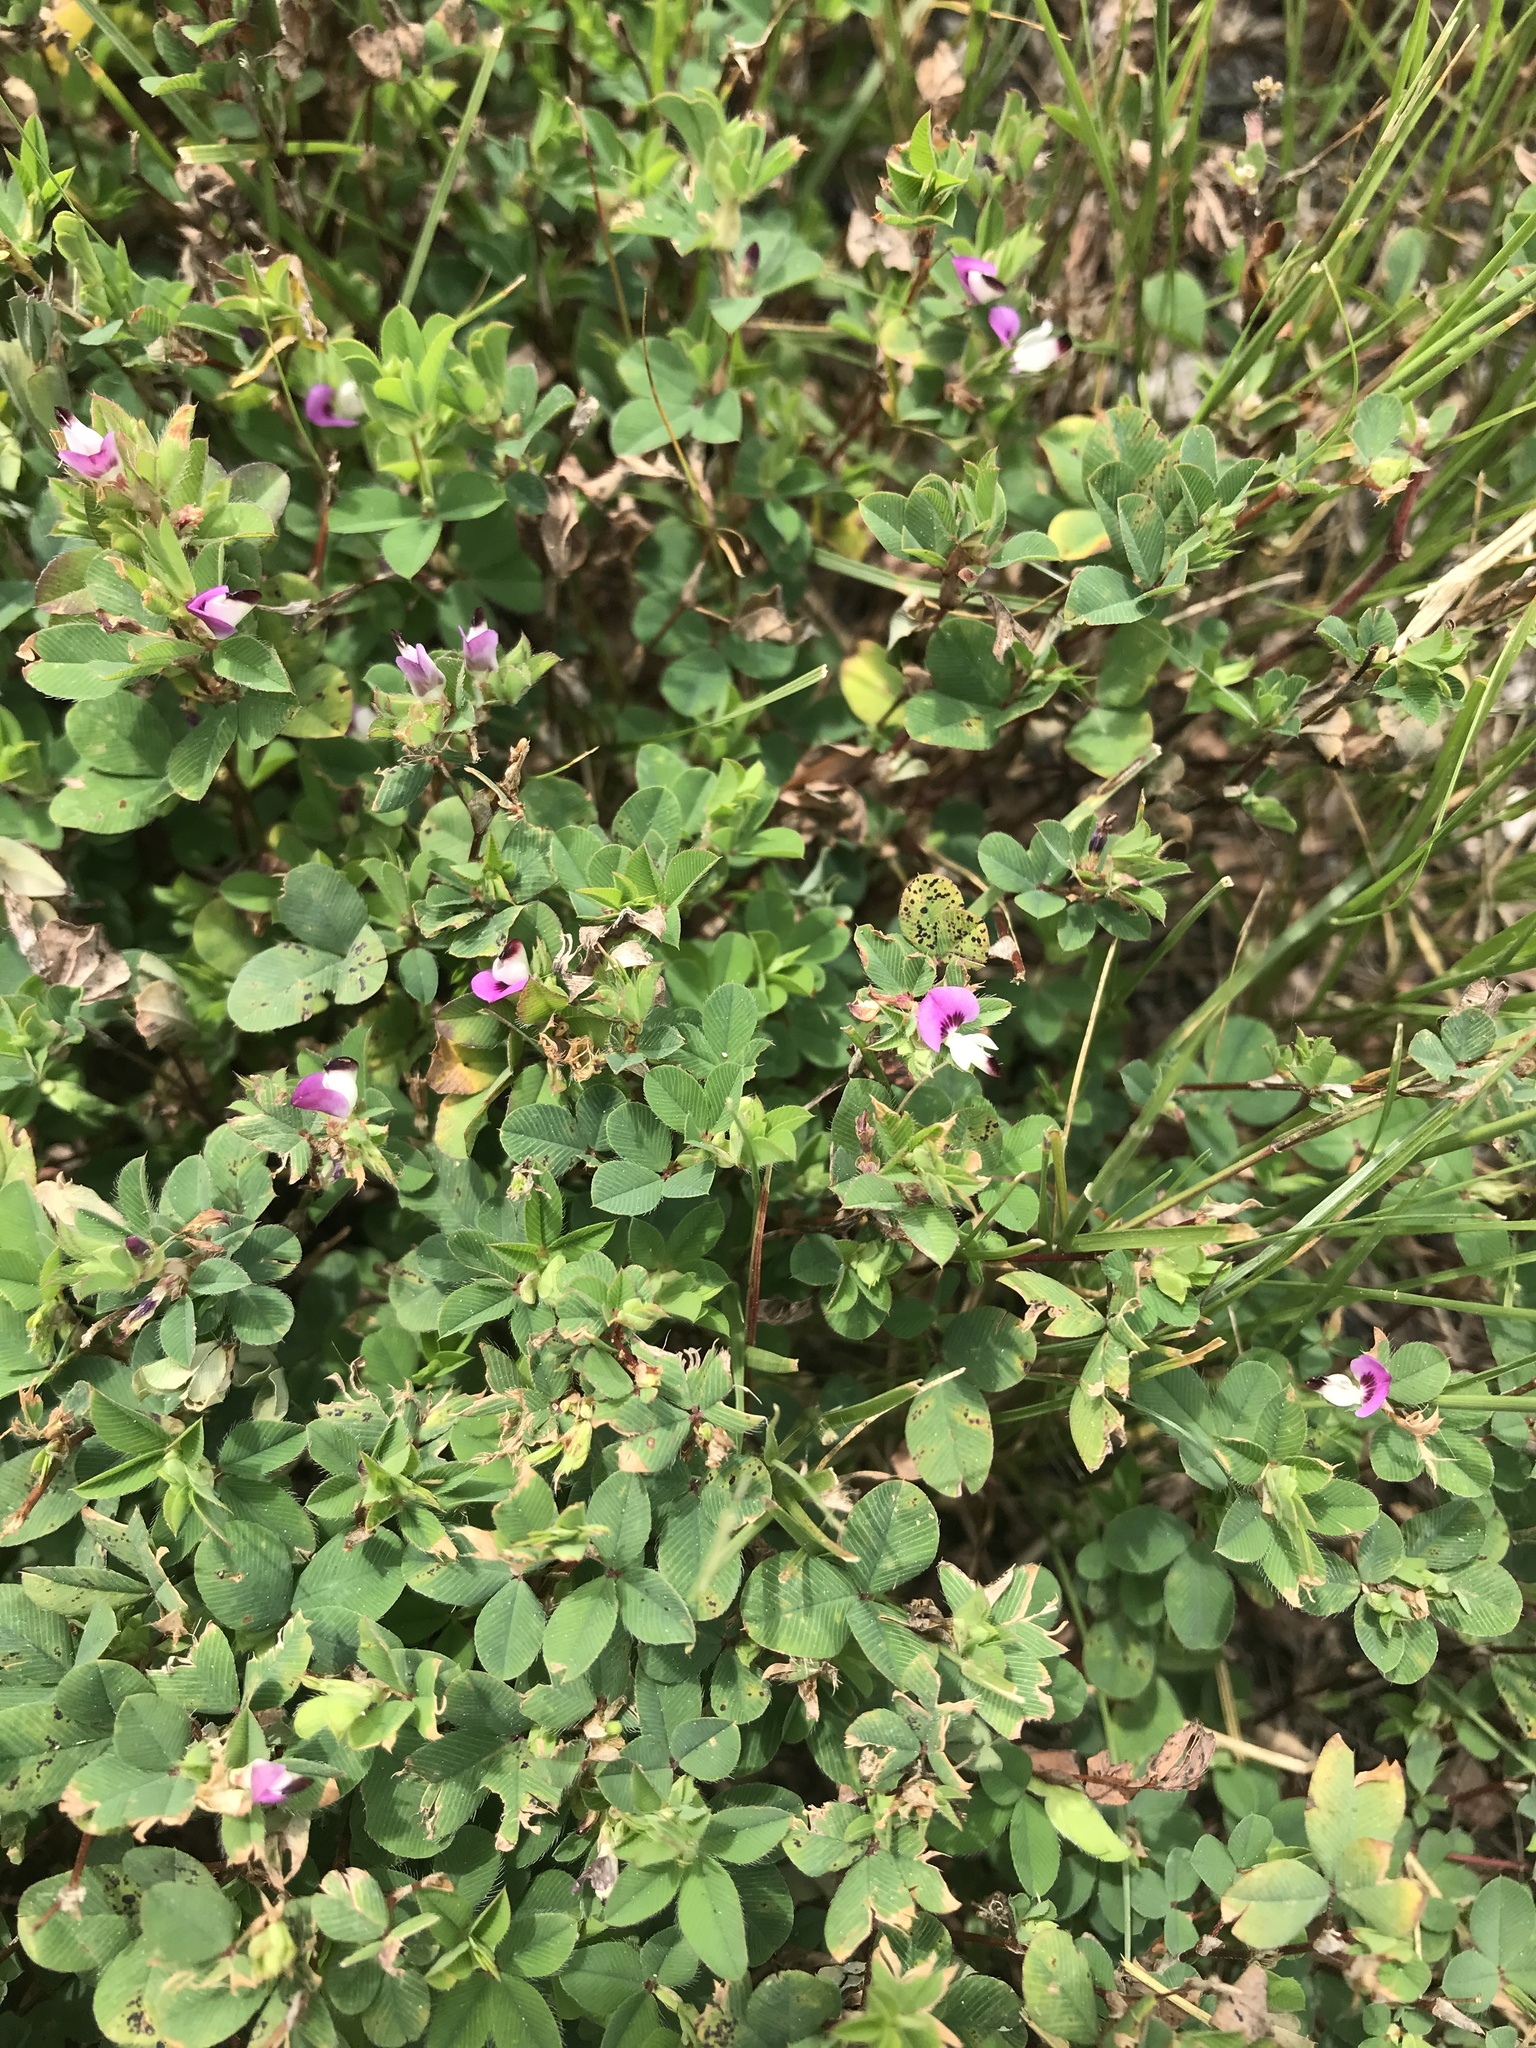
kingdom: Plantae
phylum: Tracheophyta
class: Magnoliopsida
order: Fabales
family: Fabaceae
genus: Kummerowia
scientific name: Kummerowia stipulacea
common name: Korean clover
